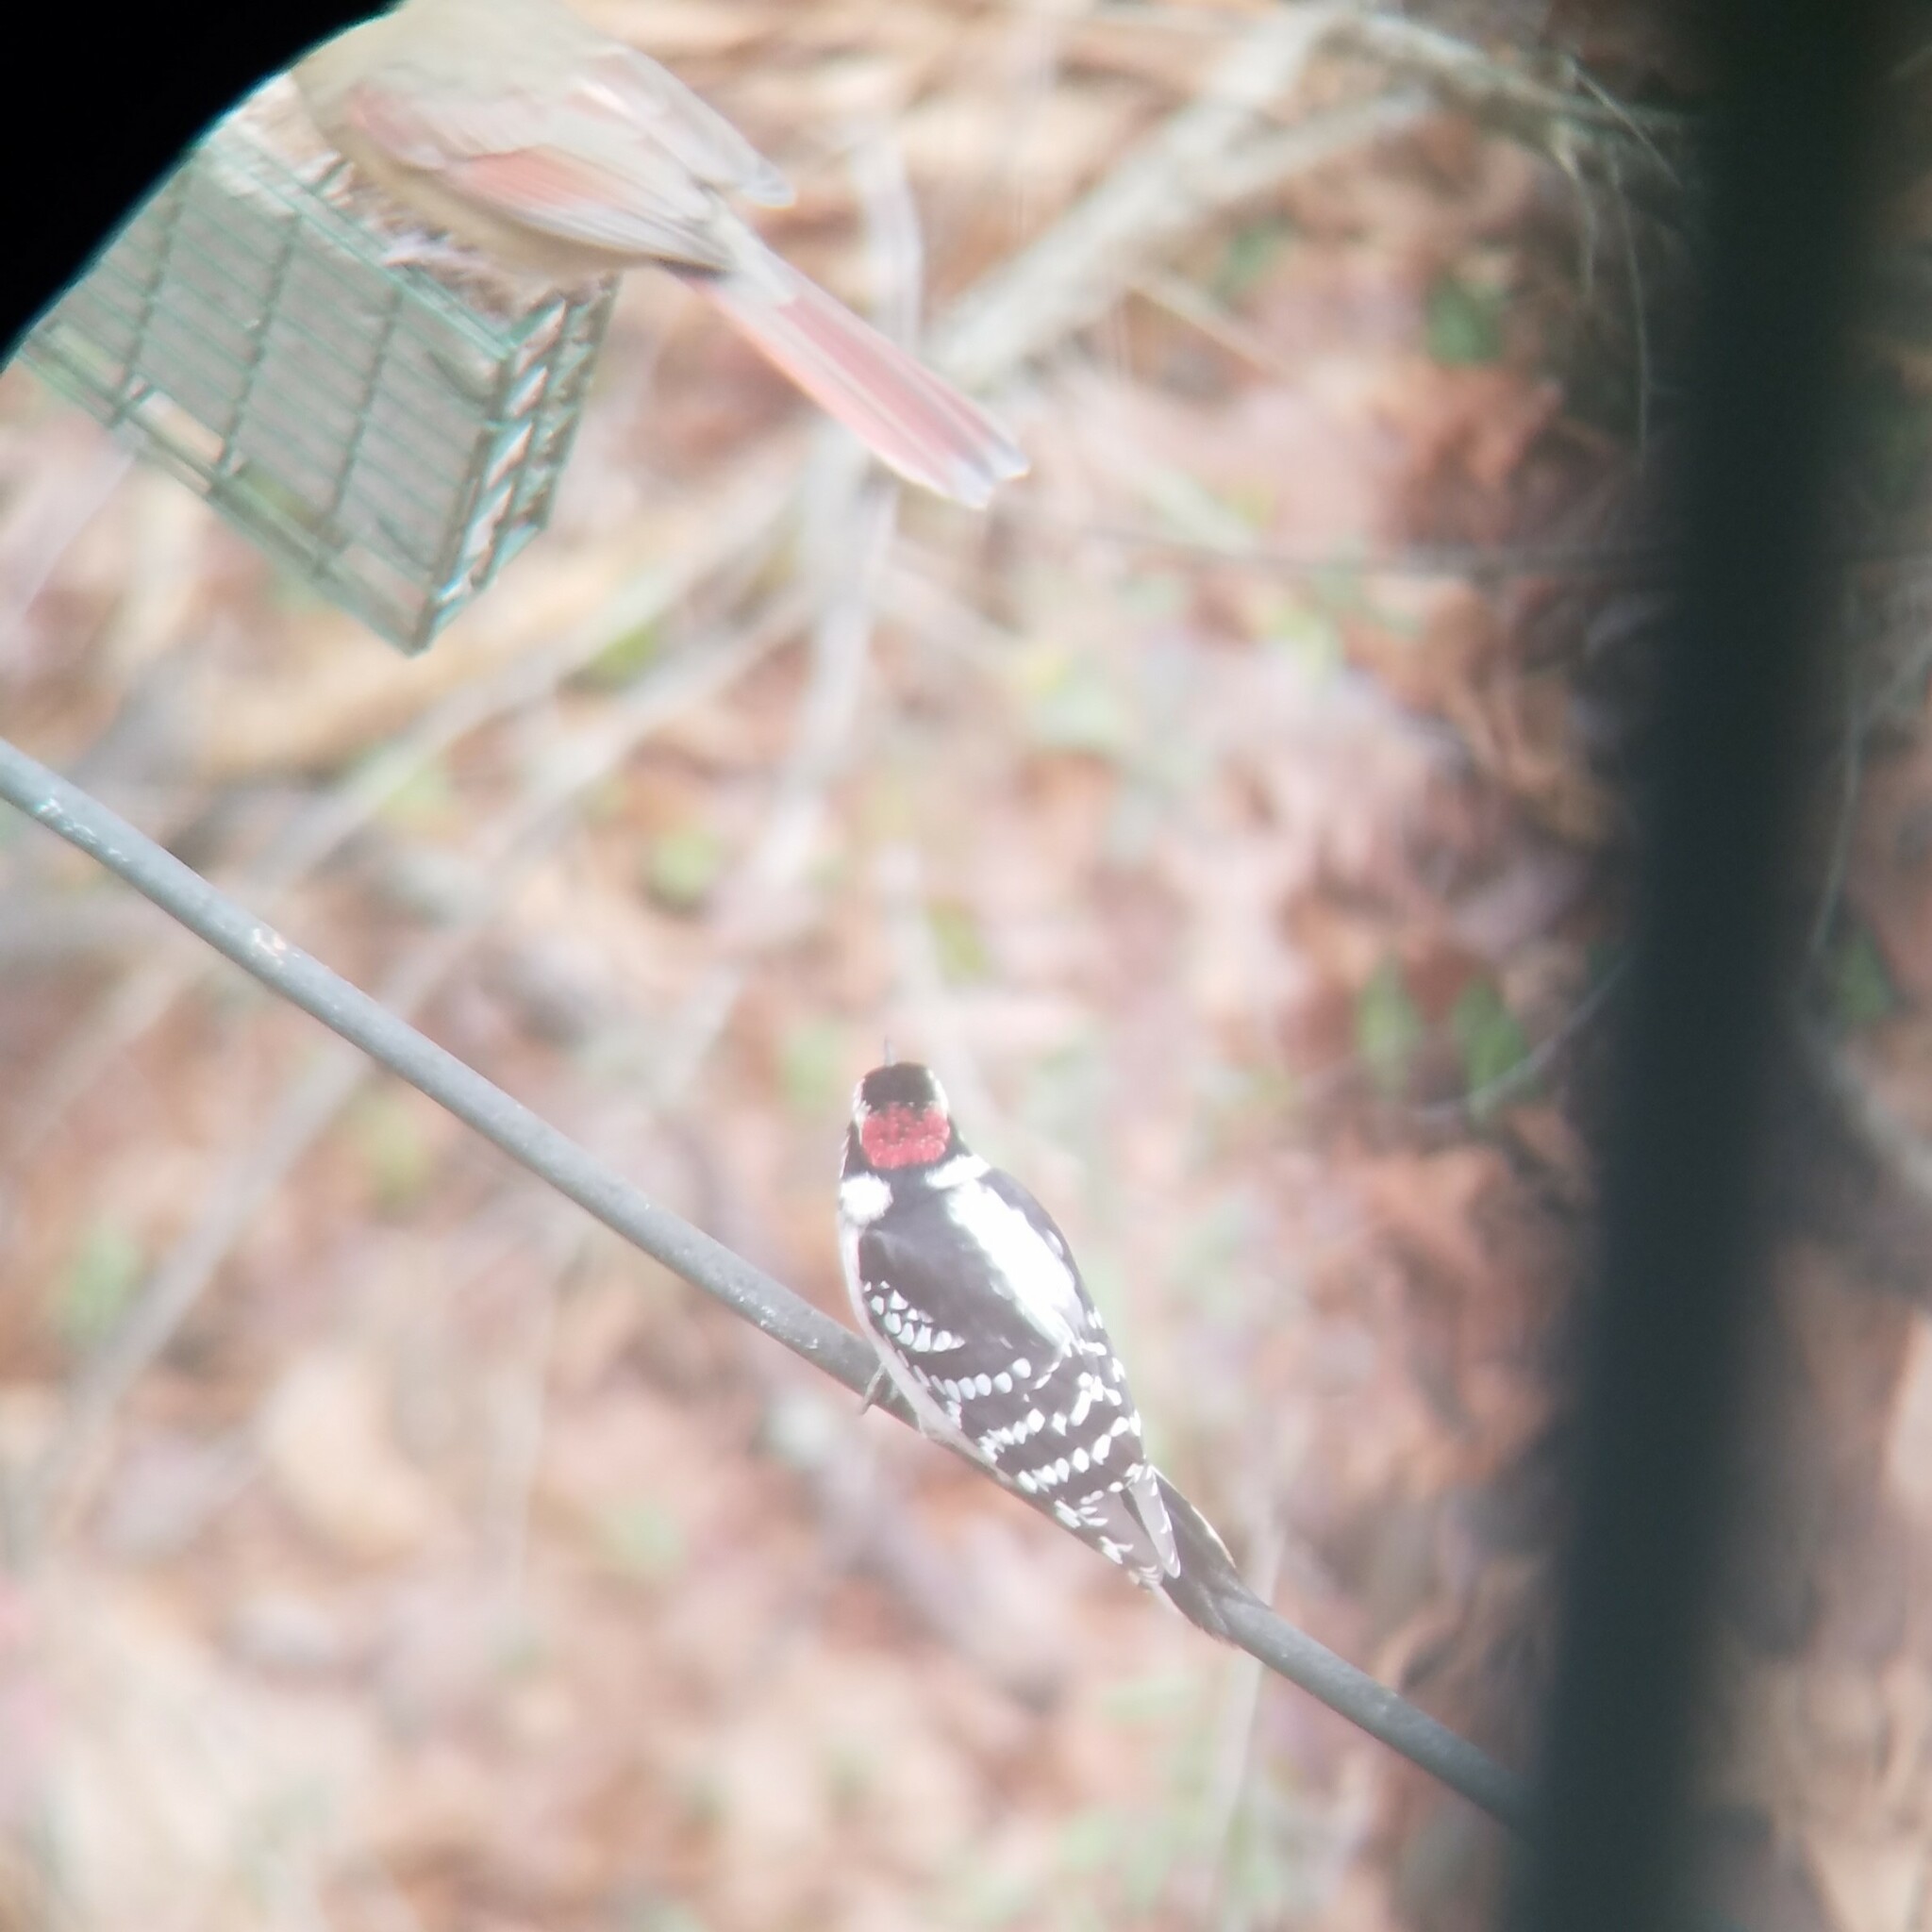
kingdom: Animalia
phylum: Chordata
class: Aves
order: Piciformes
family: Picidae
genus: Dryobates
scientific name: Dryobates pubescens
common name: Downy woodpecker
